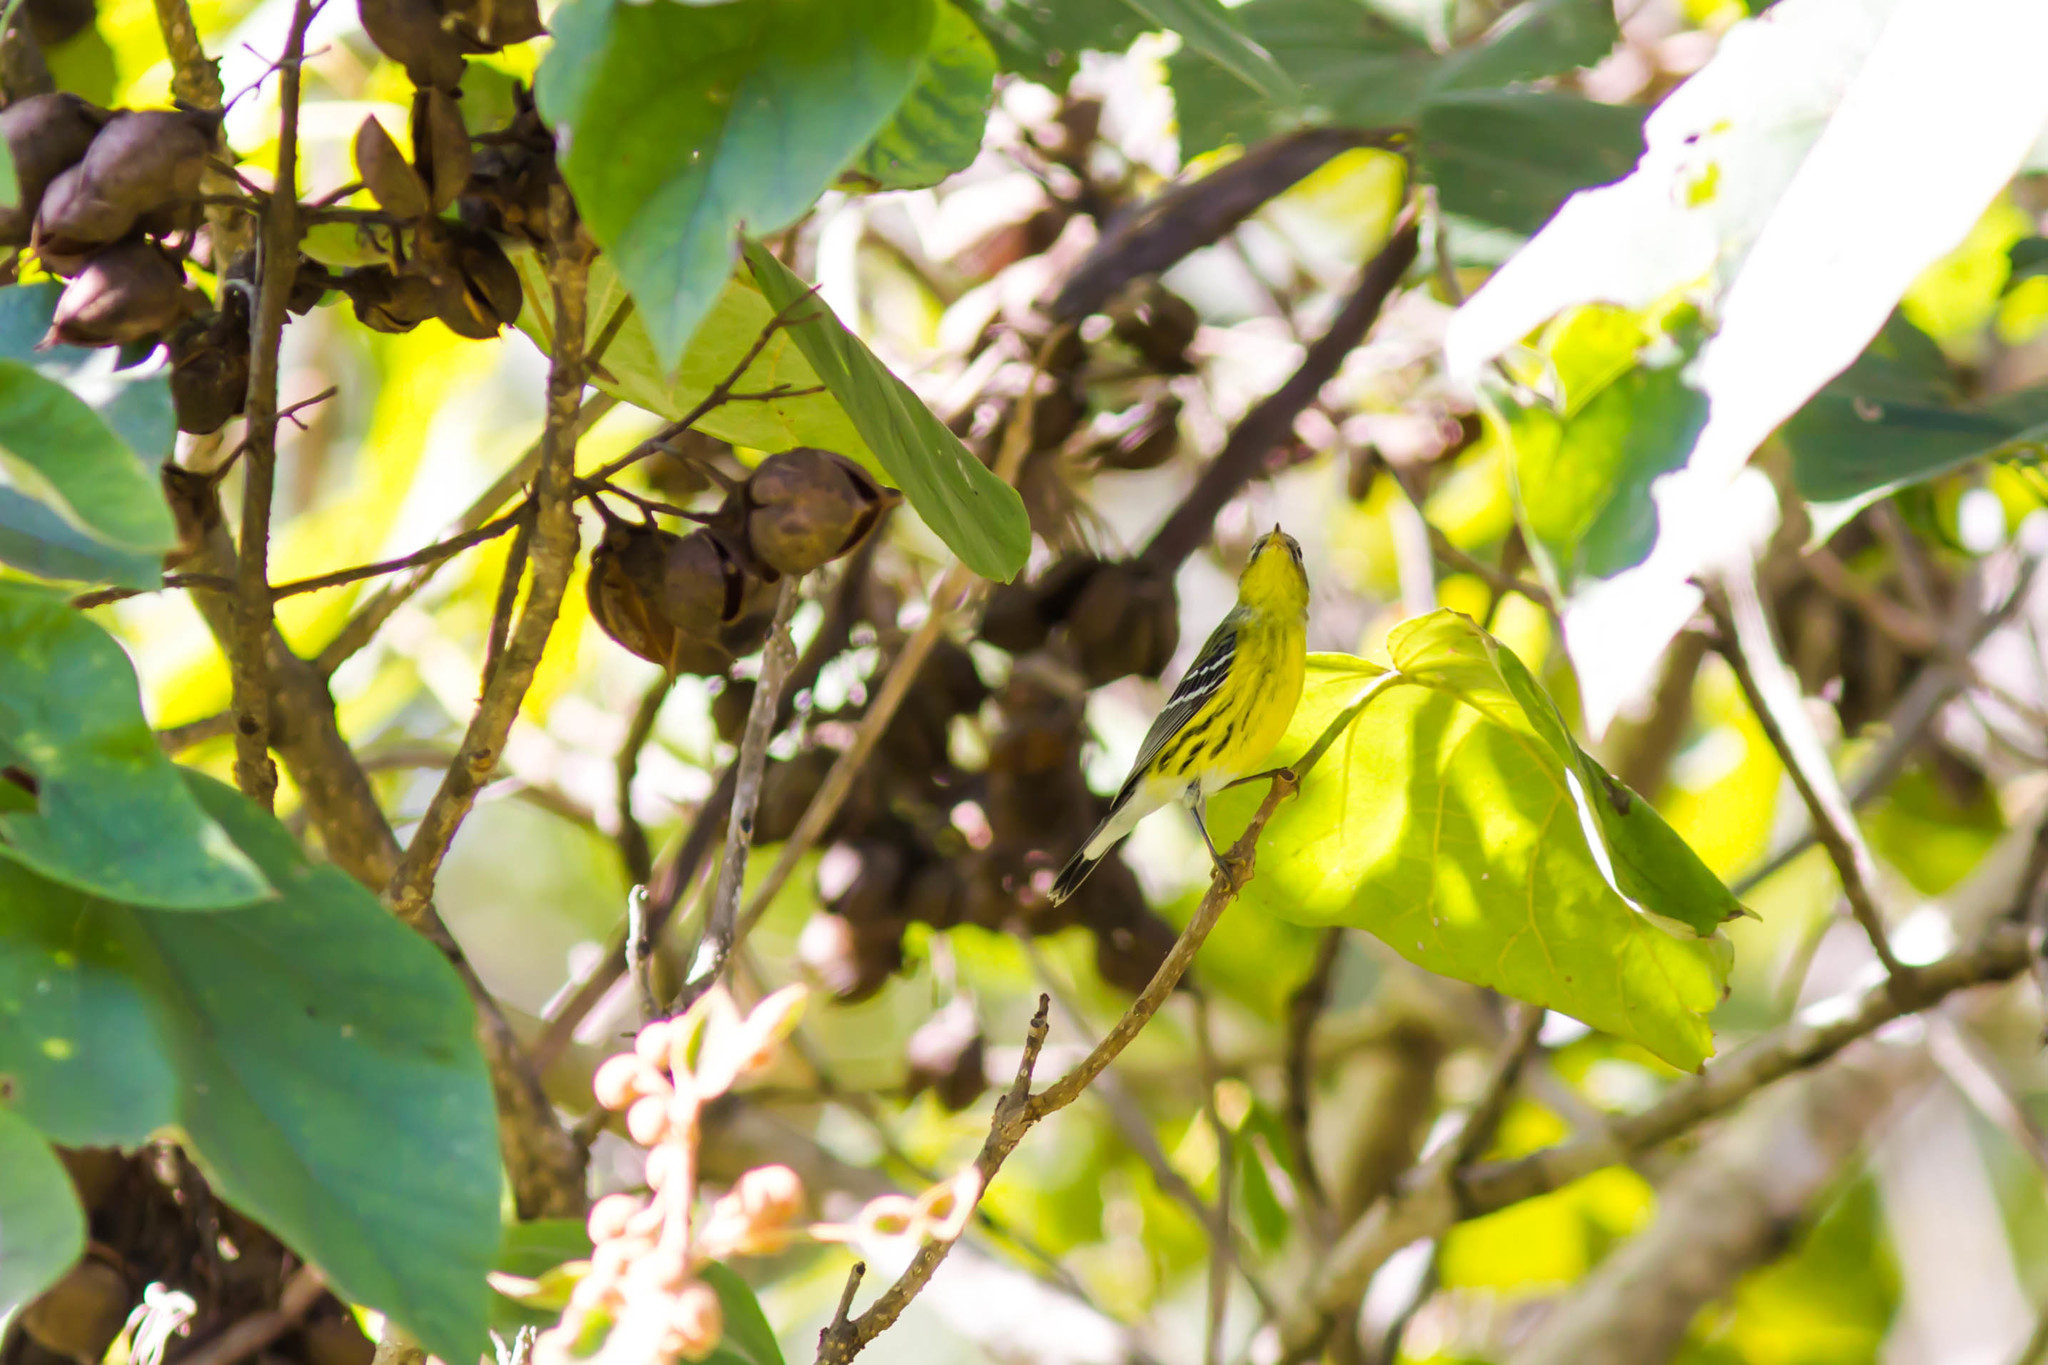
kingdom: Animalia
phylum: Chordata
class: Aves
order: Passeriformes
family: Parulidae
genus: Setophaga
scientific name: Setophaga magnolia
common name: Magnolia warbler
